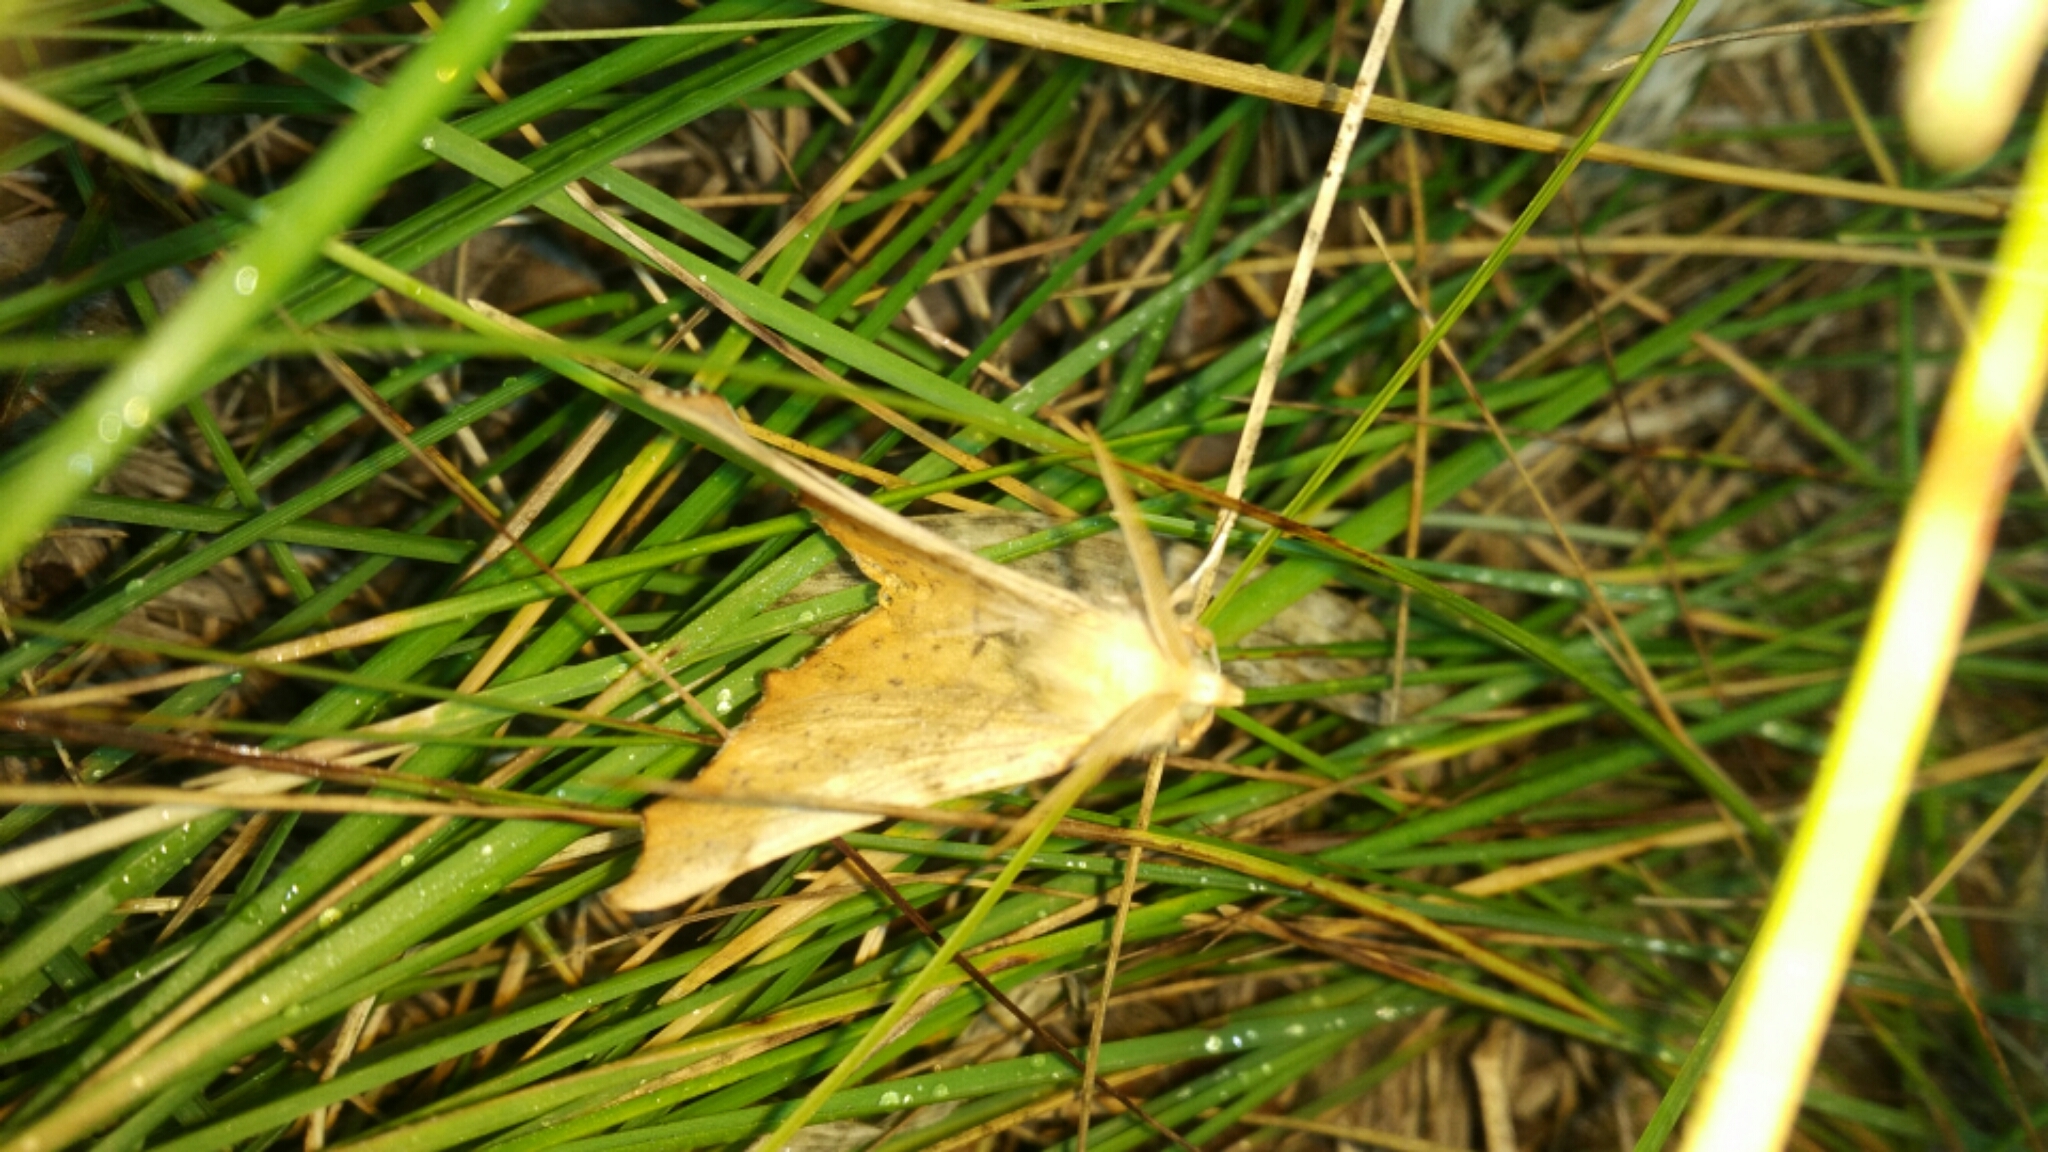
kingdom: Animalia
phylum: Arthropoda
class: Insecta
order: Lepidoptera
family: Geometridae
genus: Ennomos
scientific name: Ennomos magnaria
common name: Maple spanworm
